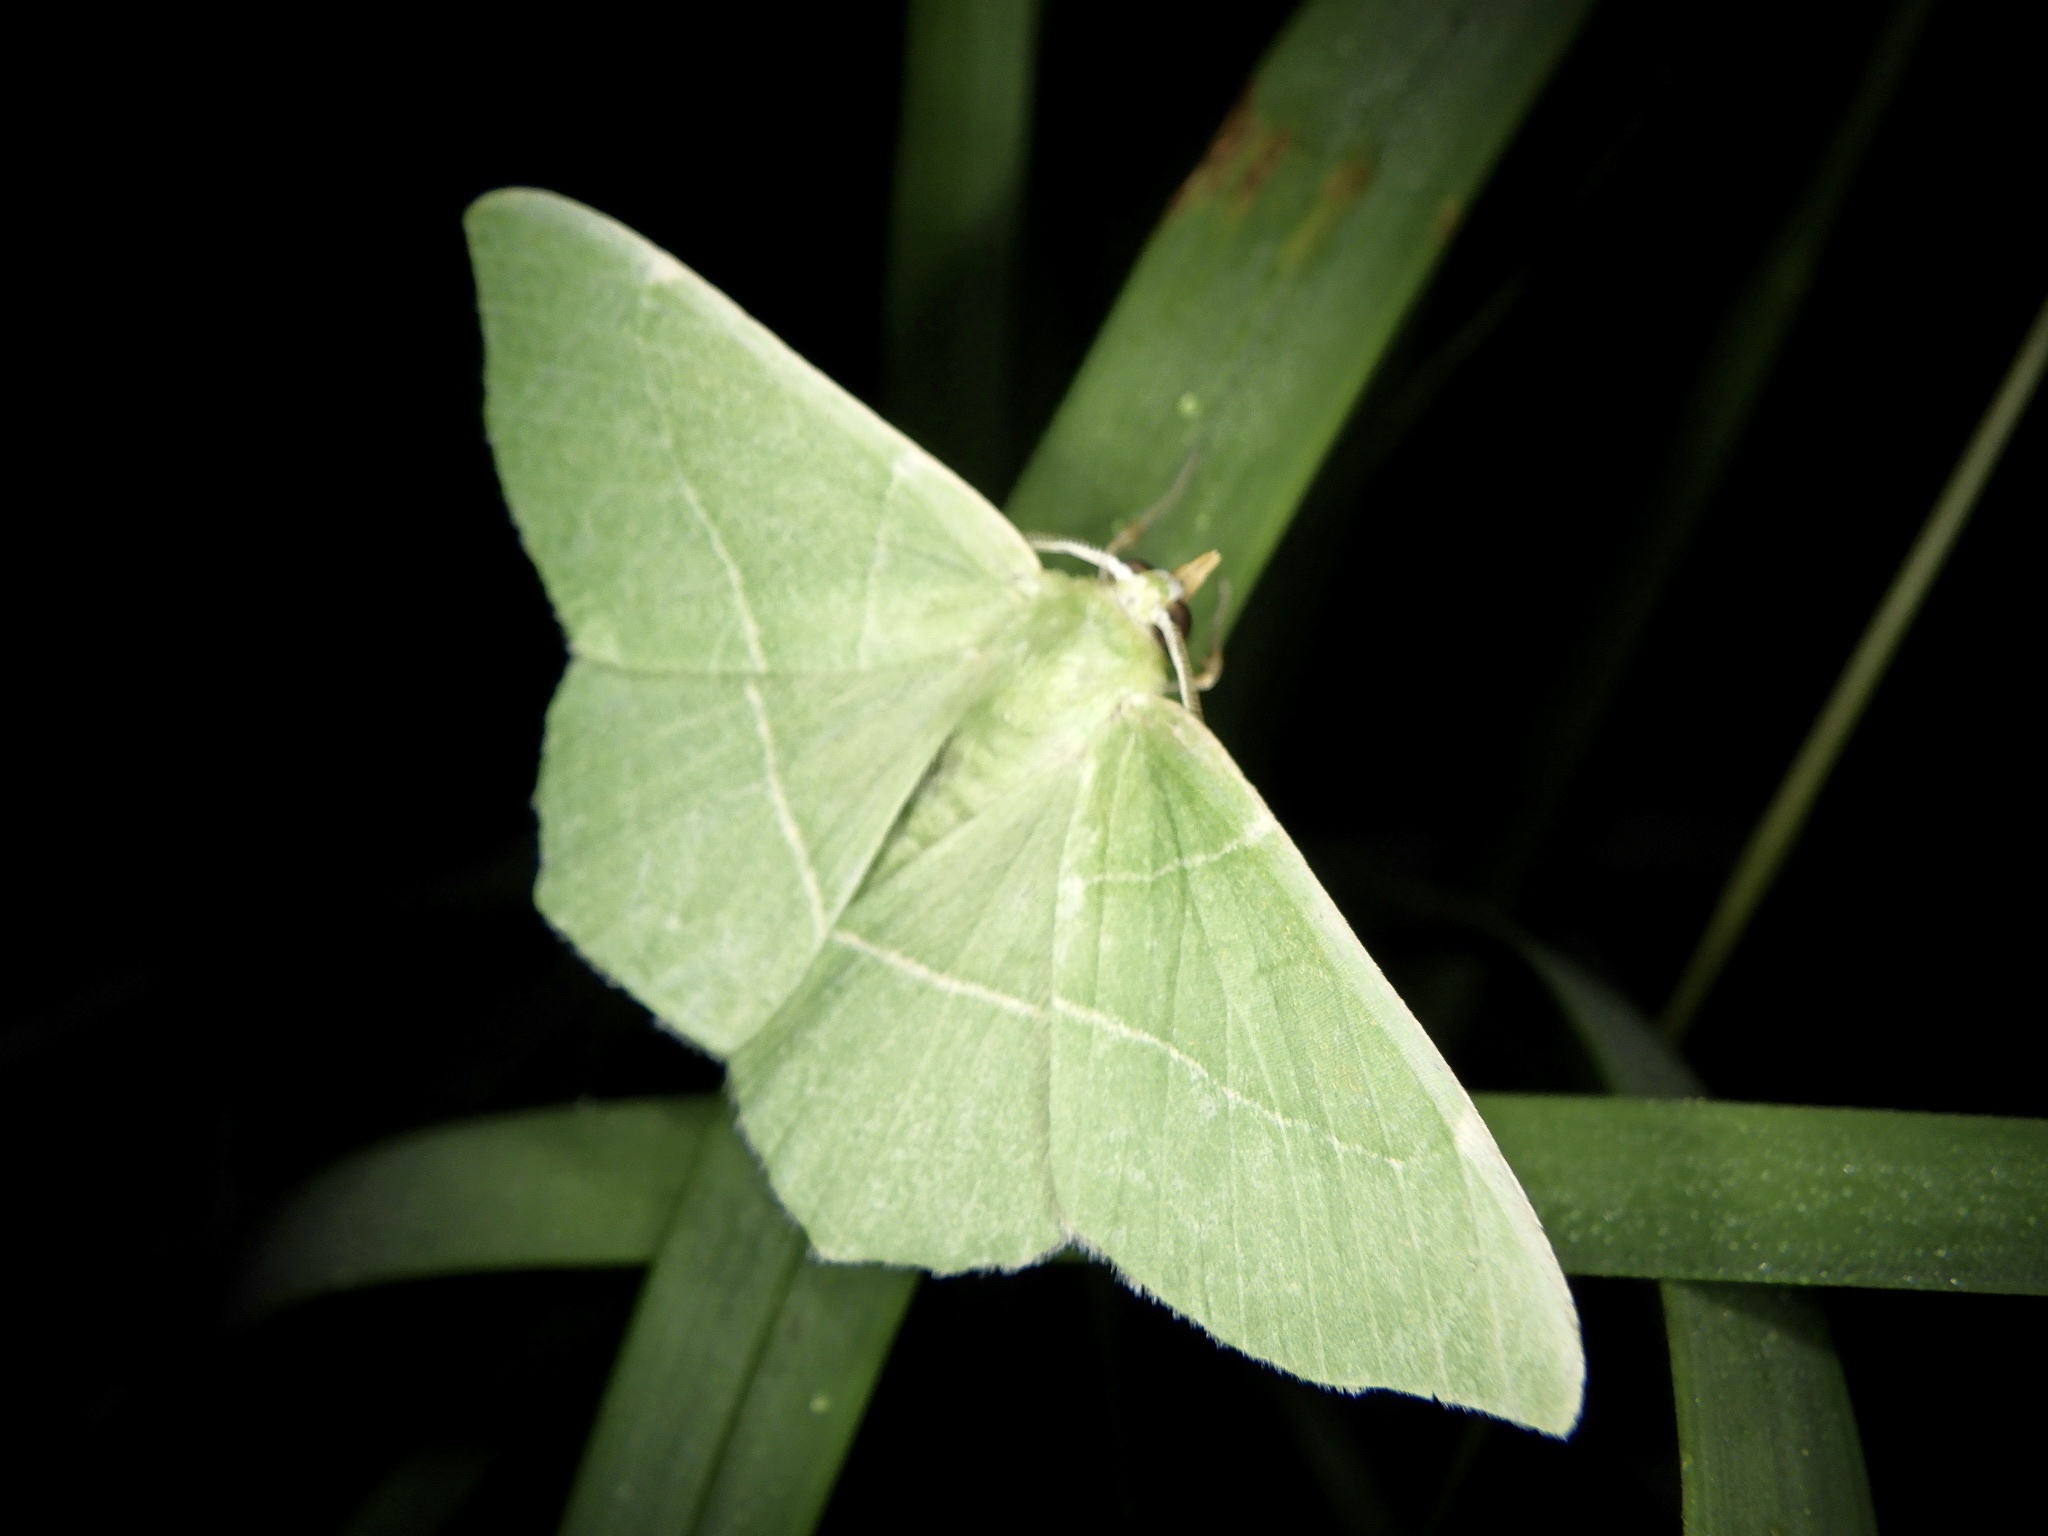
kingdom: Animalia
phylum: Arthropoda
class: Insecta
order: Lepidoptera
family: Geometridae
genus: Geometra
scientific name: Geometra dieckmanni
